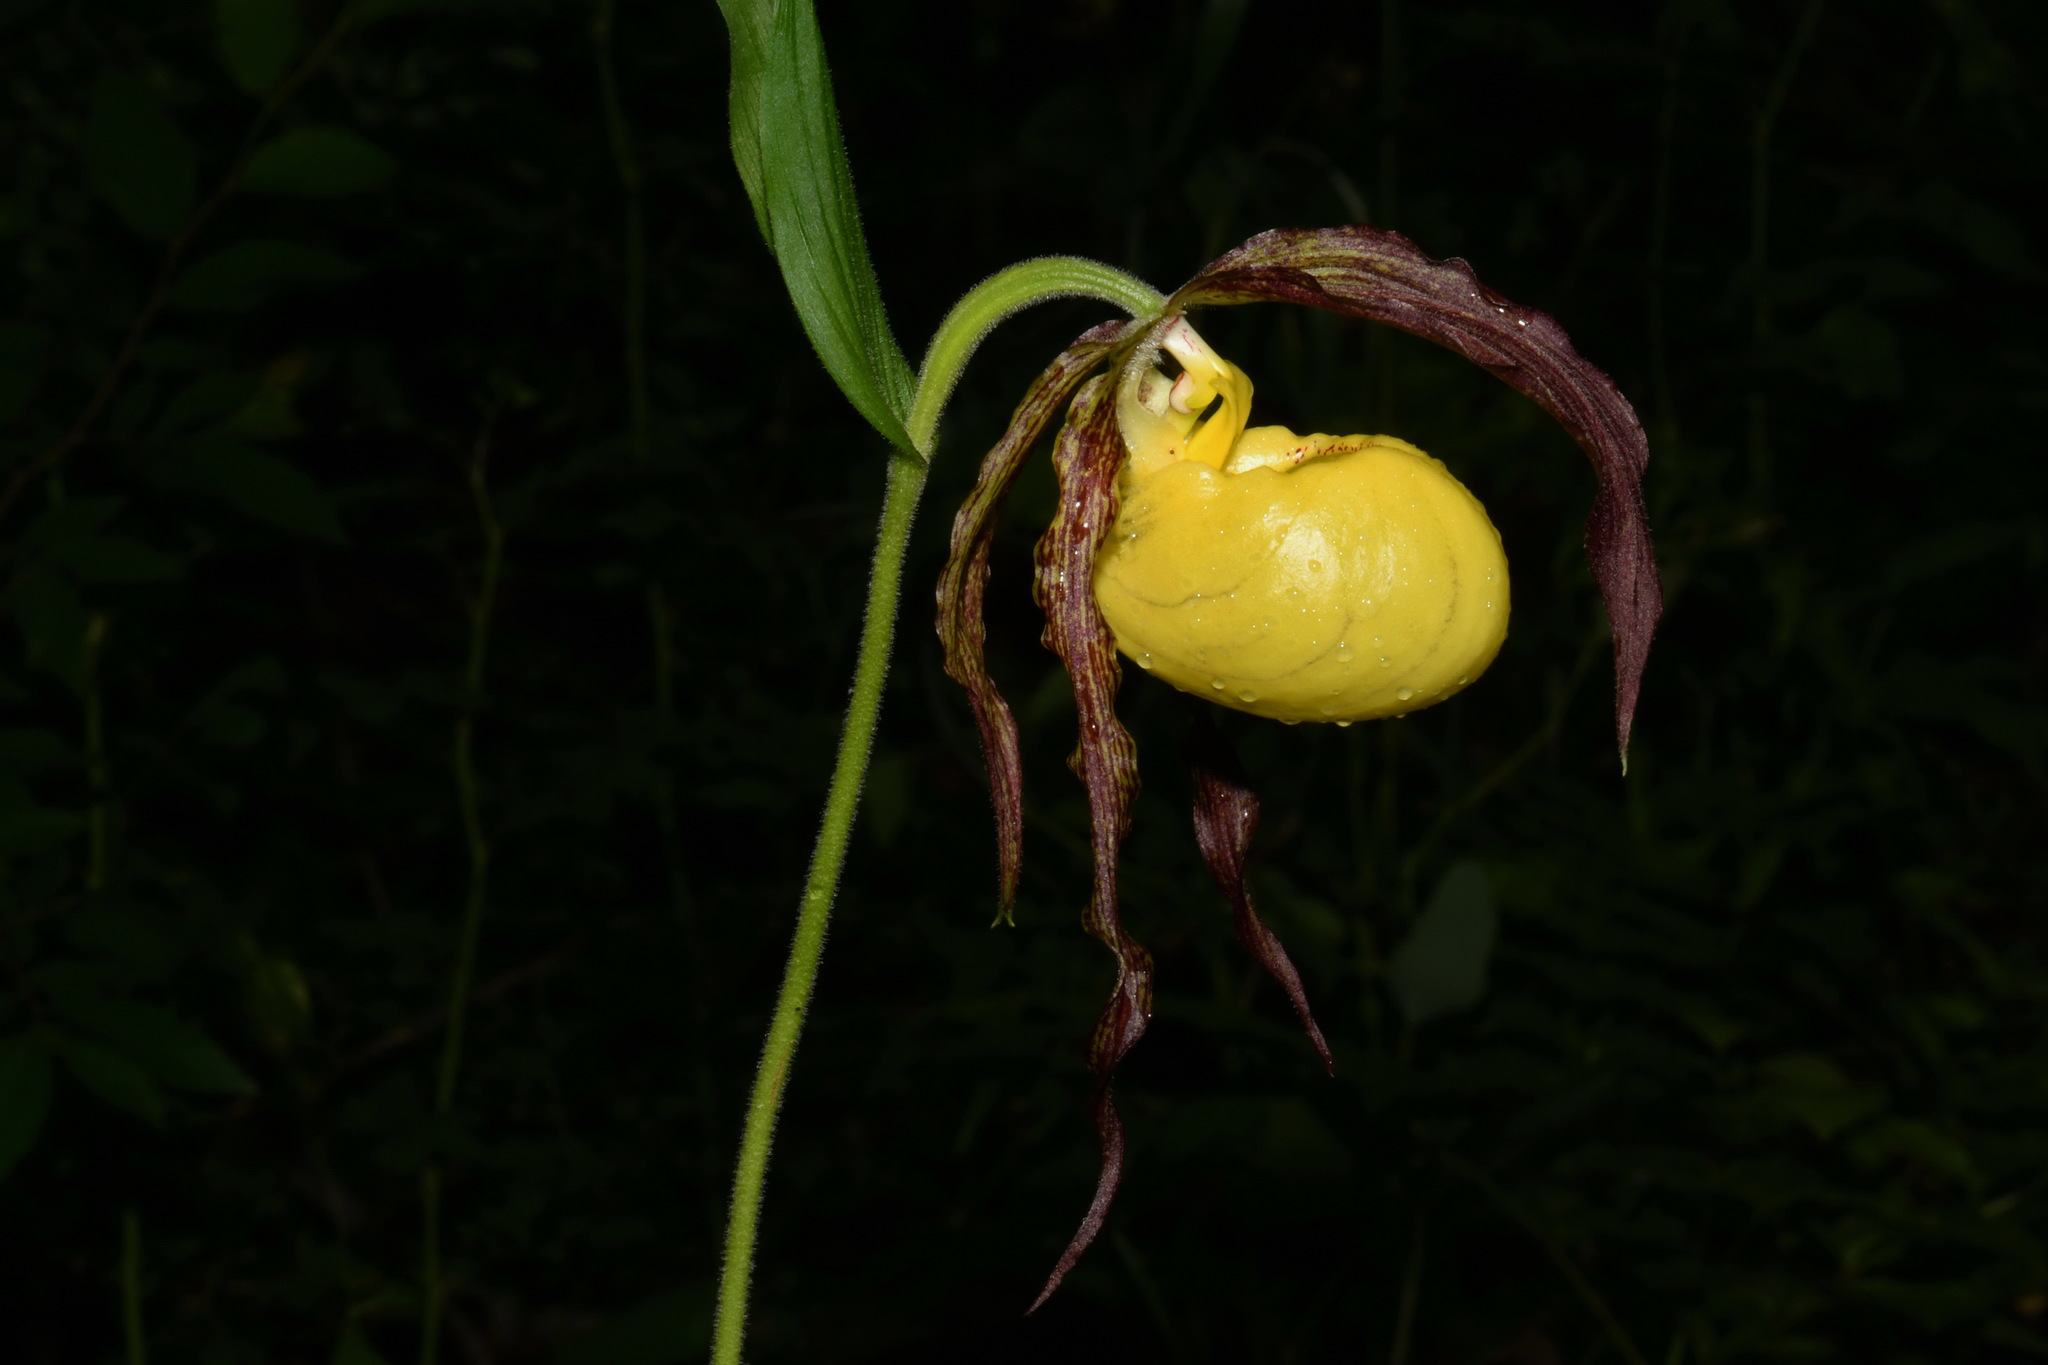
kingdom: Plantae
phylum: Tracheophyta
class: Liliopsida
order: Asparagales
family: Orchidaceae
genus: Cypripedium
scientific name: Cypripedium kentuckiense
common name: Kentucky lady's slipper
